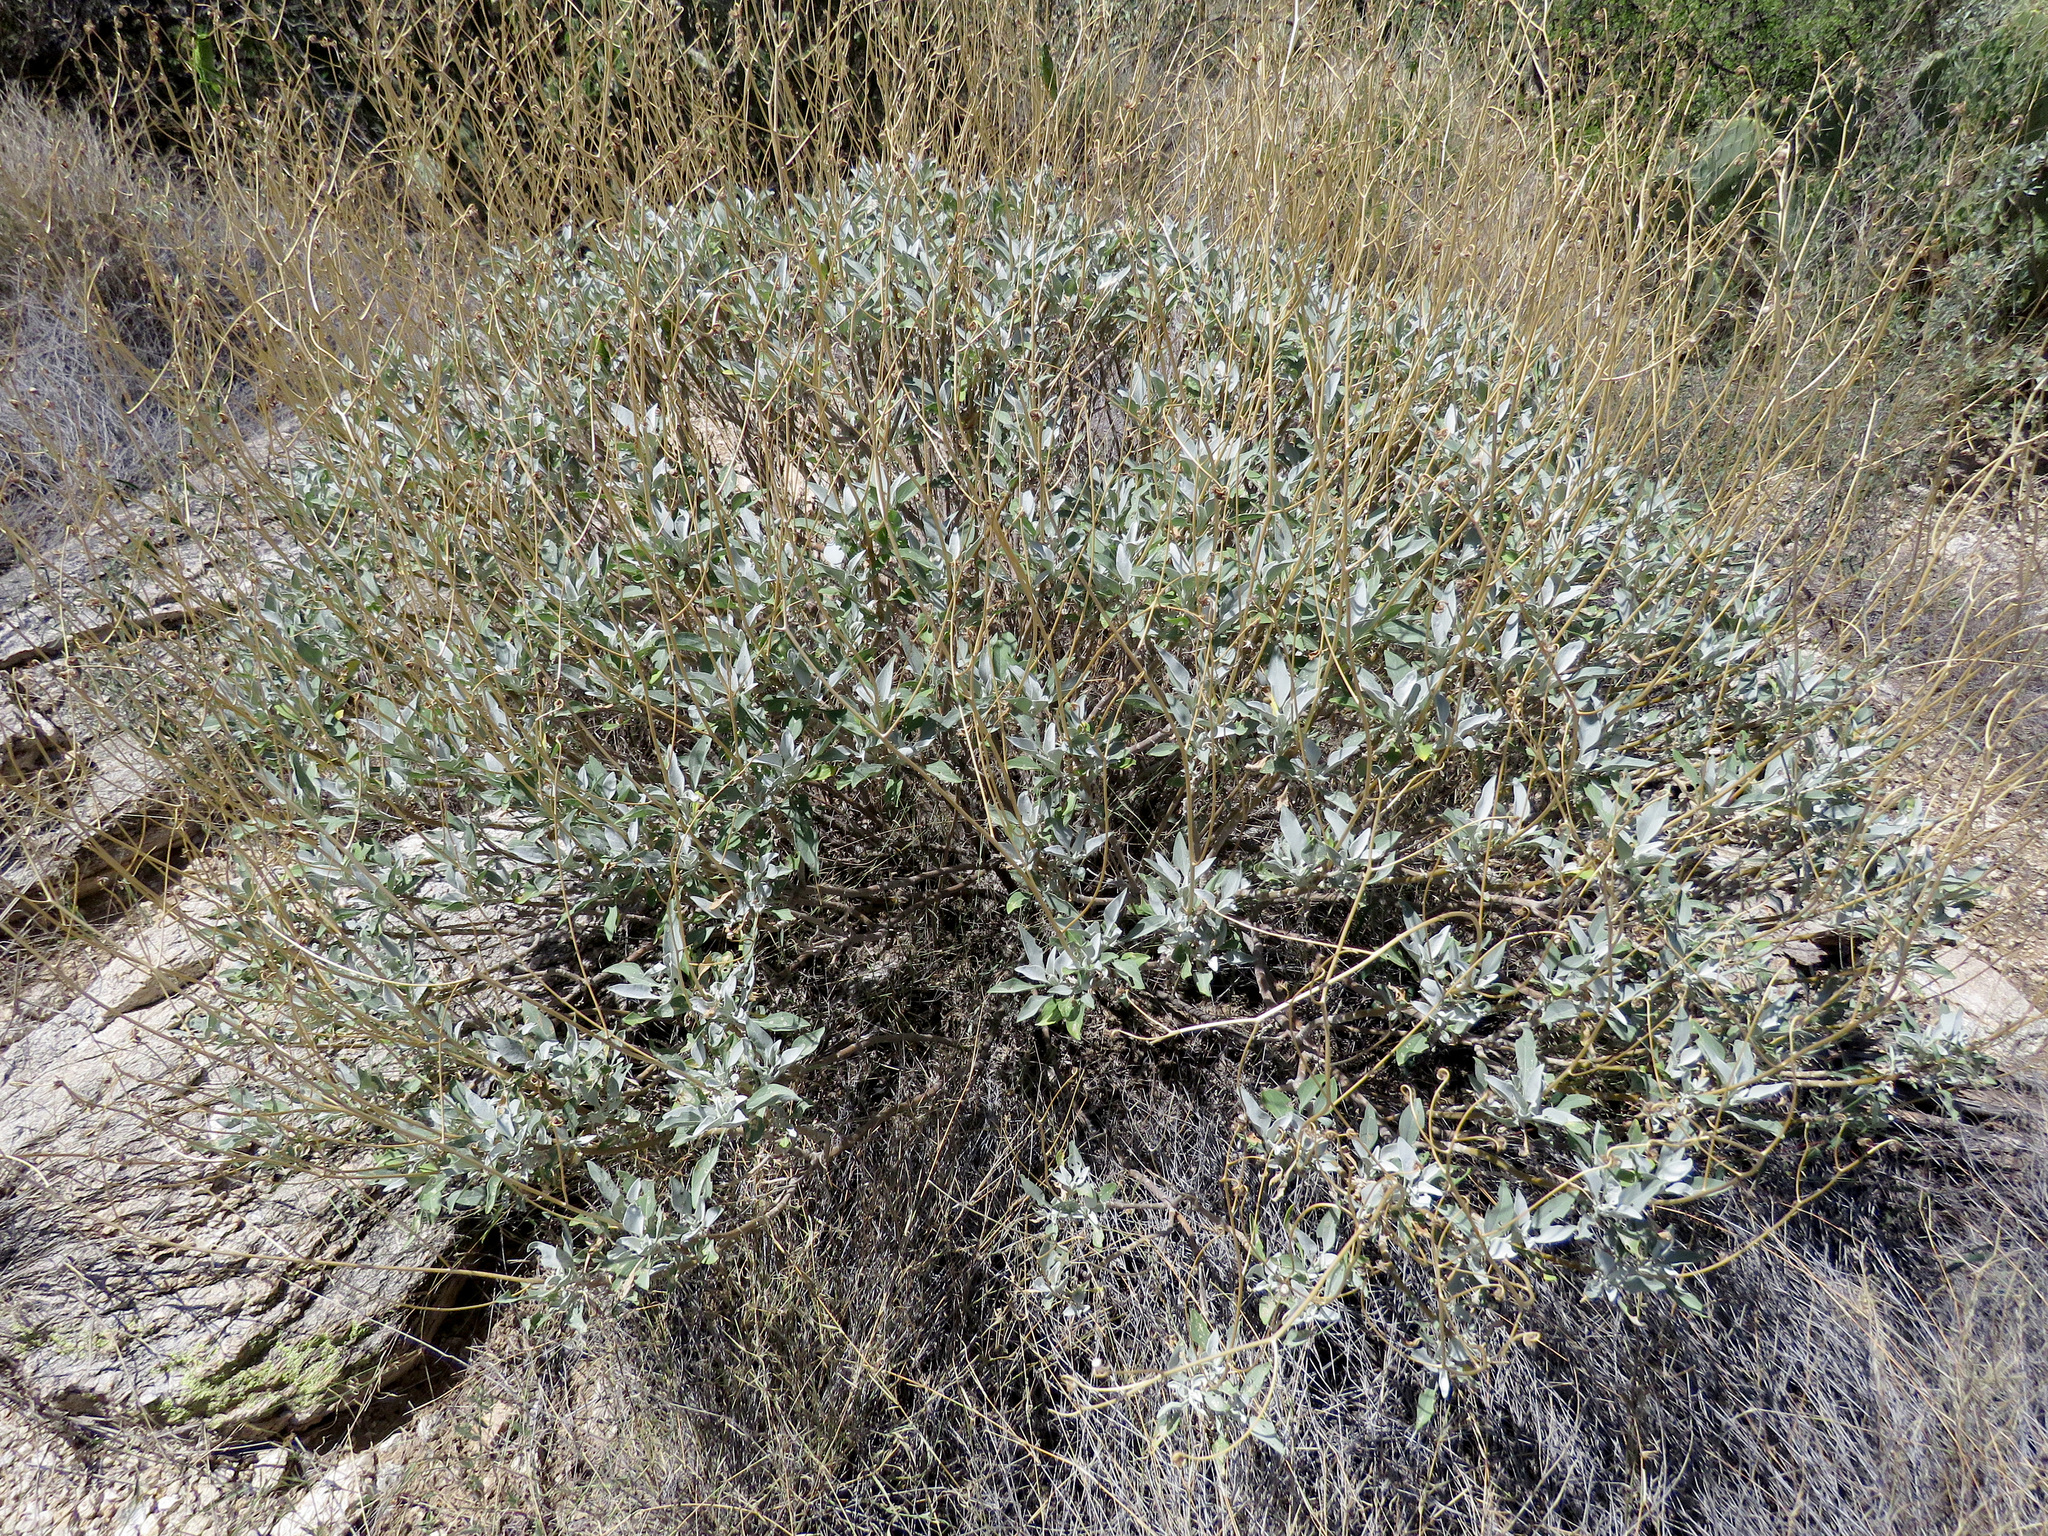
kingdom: Plantae
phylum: Tracheophyta
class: Magnoliopsida
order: Asterales
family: Asteraceae
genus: Encelia
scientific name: Encelia farinosa
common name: Brittlebush
